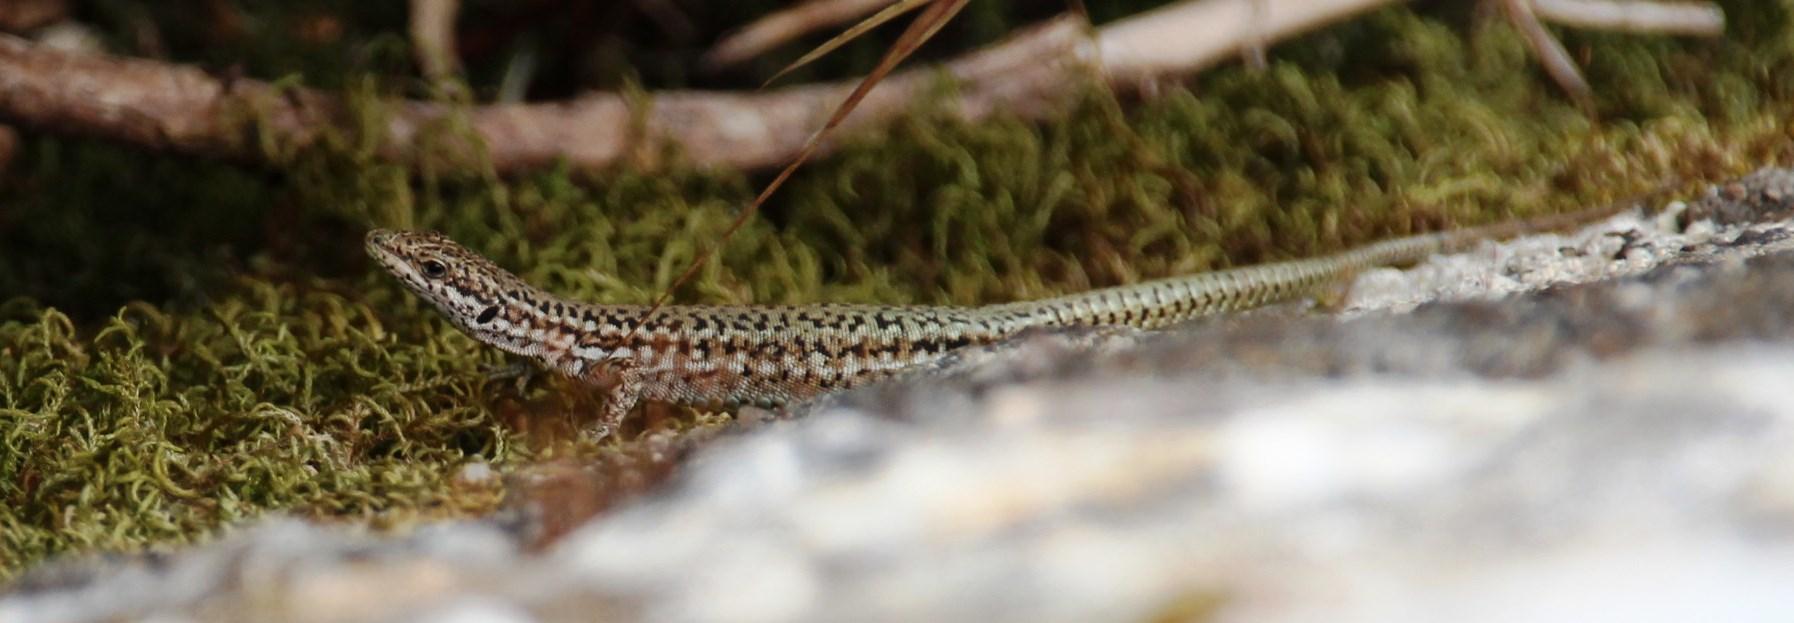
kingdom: Animalia
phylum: Chordata
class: Squamata
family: Lacertidae
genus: Podarcis
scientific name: Podarcis virescens
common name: Geniez’s wall lizard
